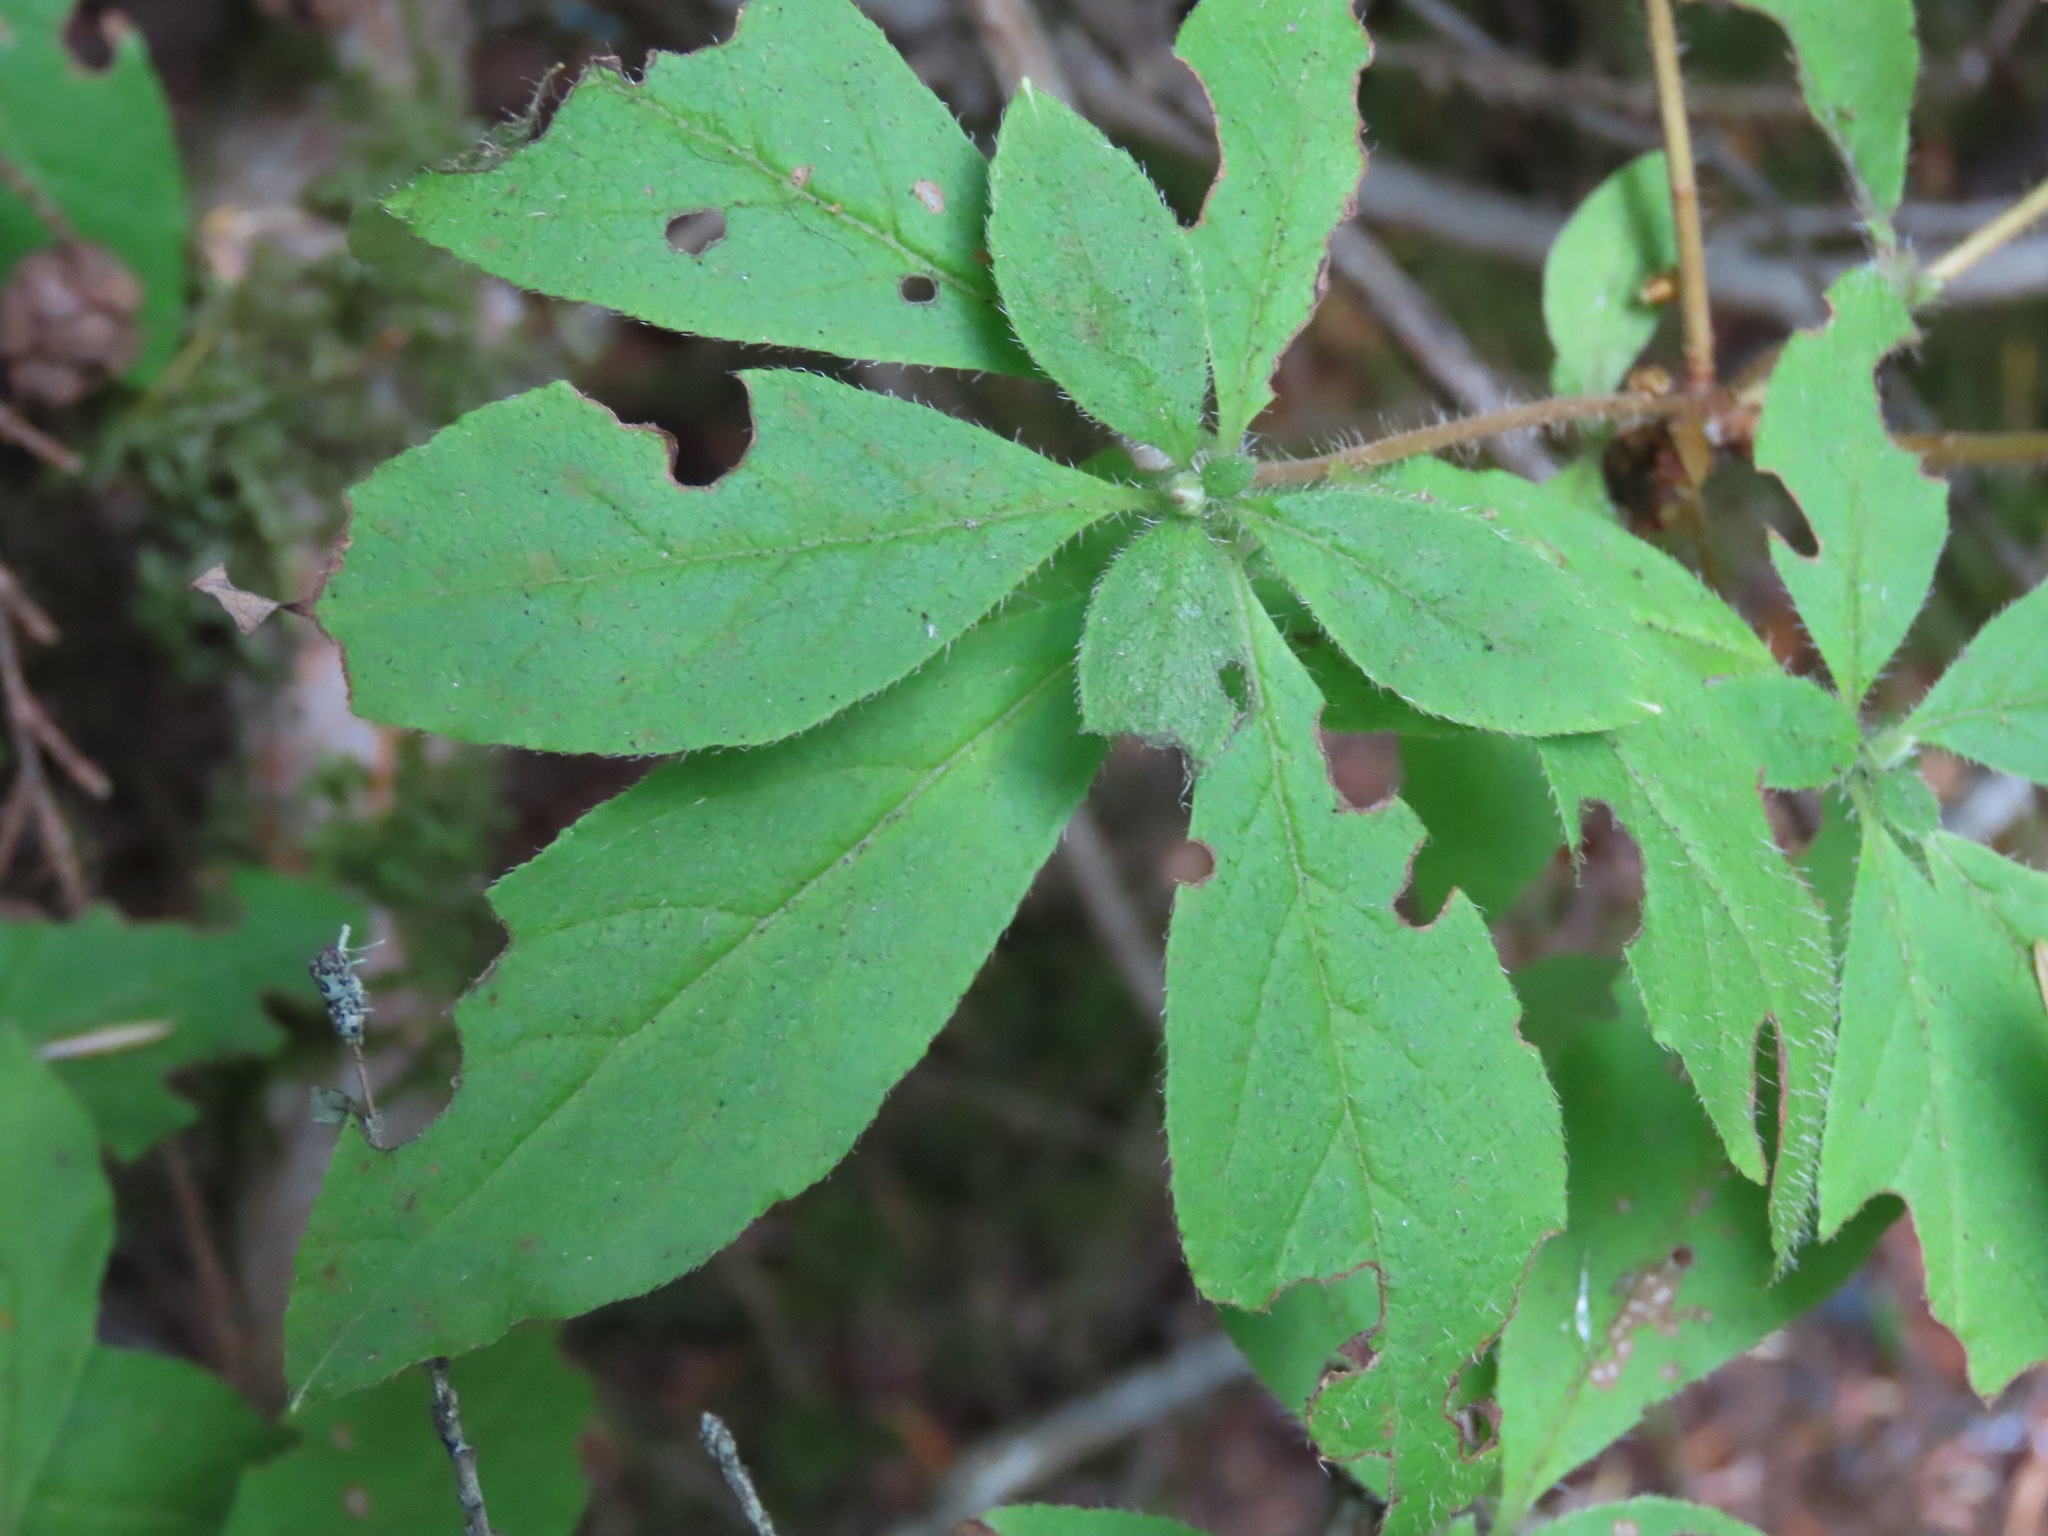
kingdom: Plantae
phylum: Tracheophyta
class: Magnoliopsida
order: Ericales
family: Ericaceae
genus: Rhododendron
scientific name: Rhododendron menziesii
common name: Pacific menziesia
